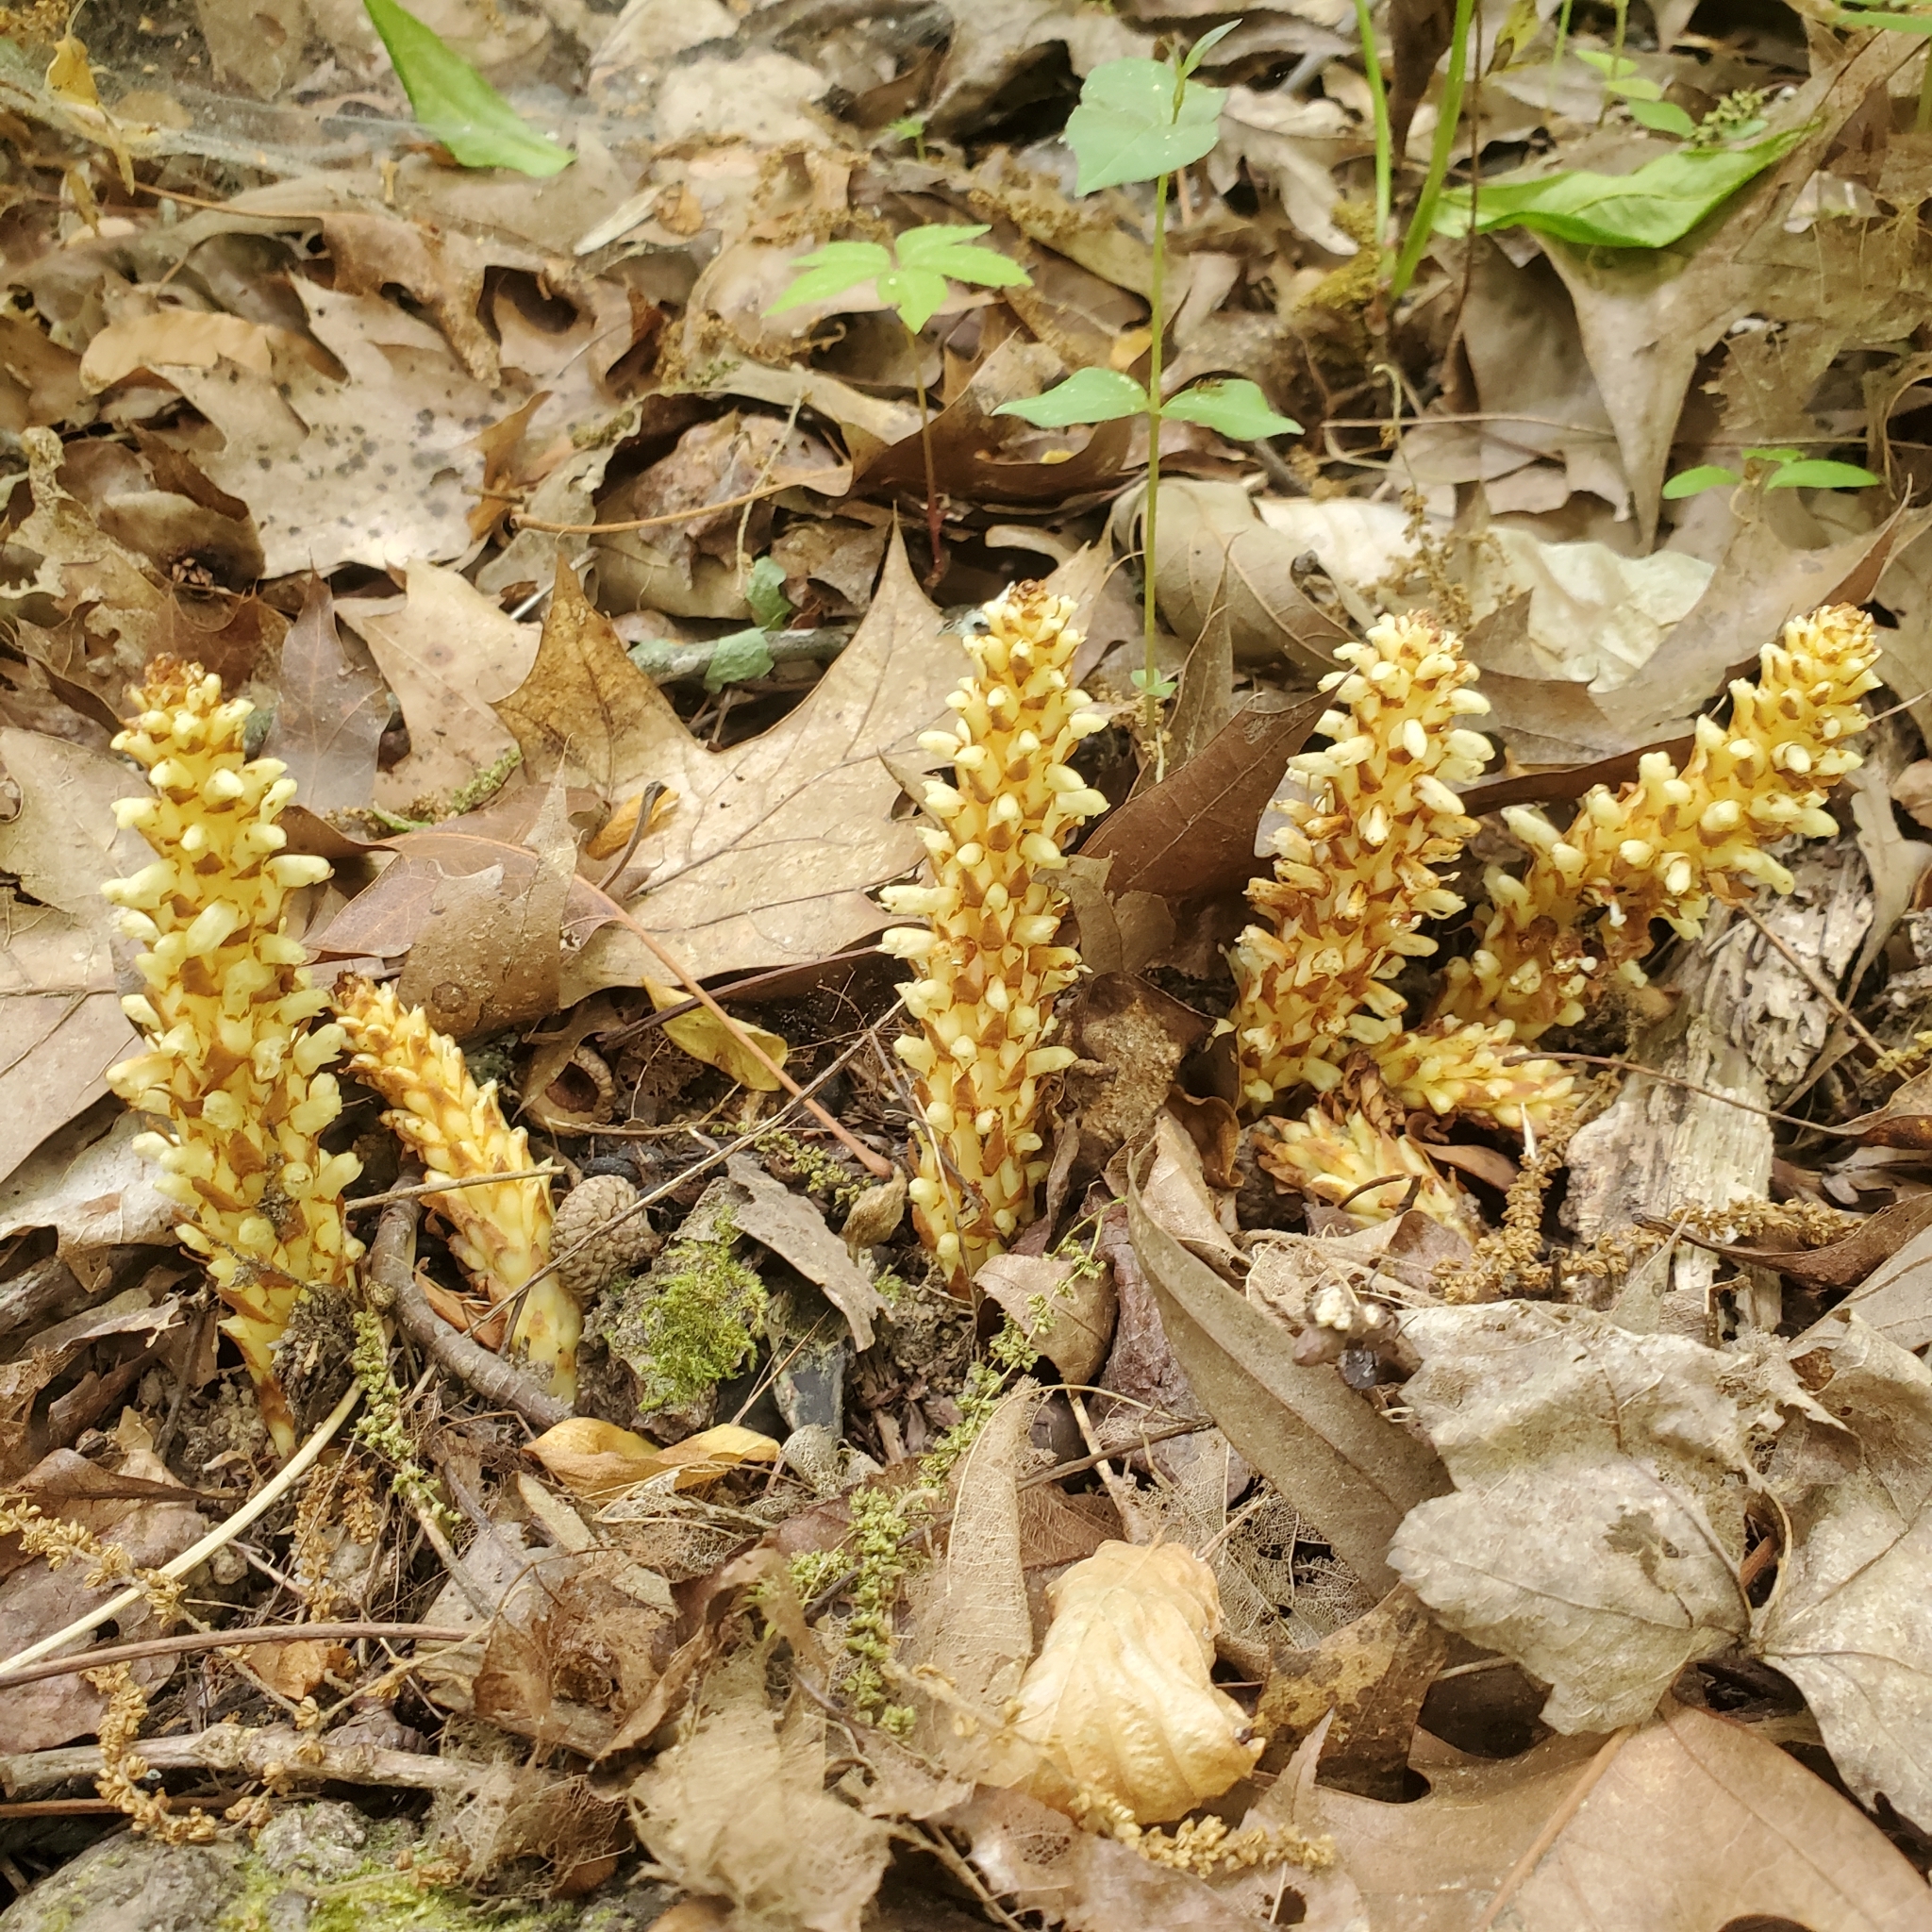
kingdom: Plantae
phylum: Tracheophyta
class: Magnoliopsida
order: Lamiales
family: Orobanchaceae
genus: Conopholis
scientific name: Conopholis americana
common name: American cancer-root
